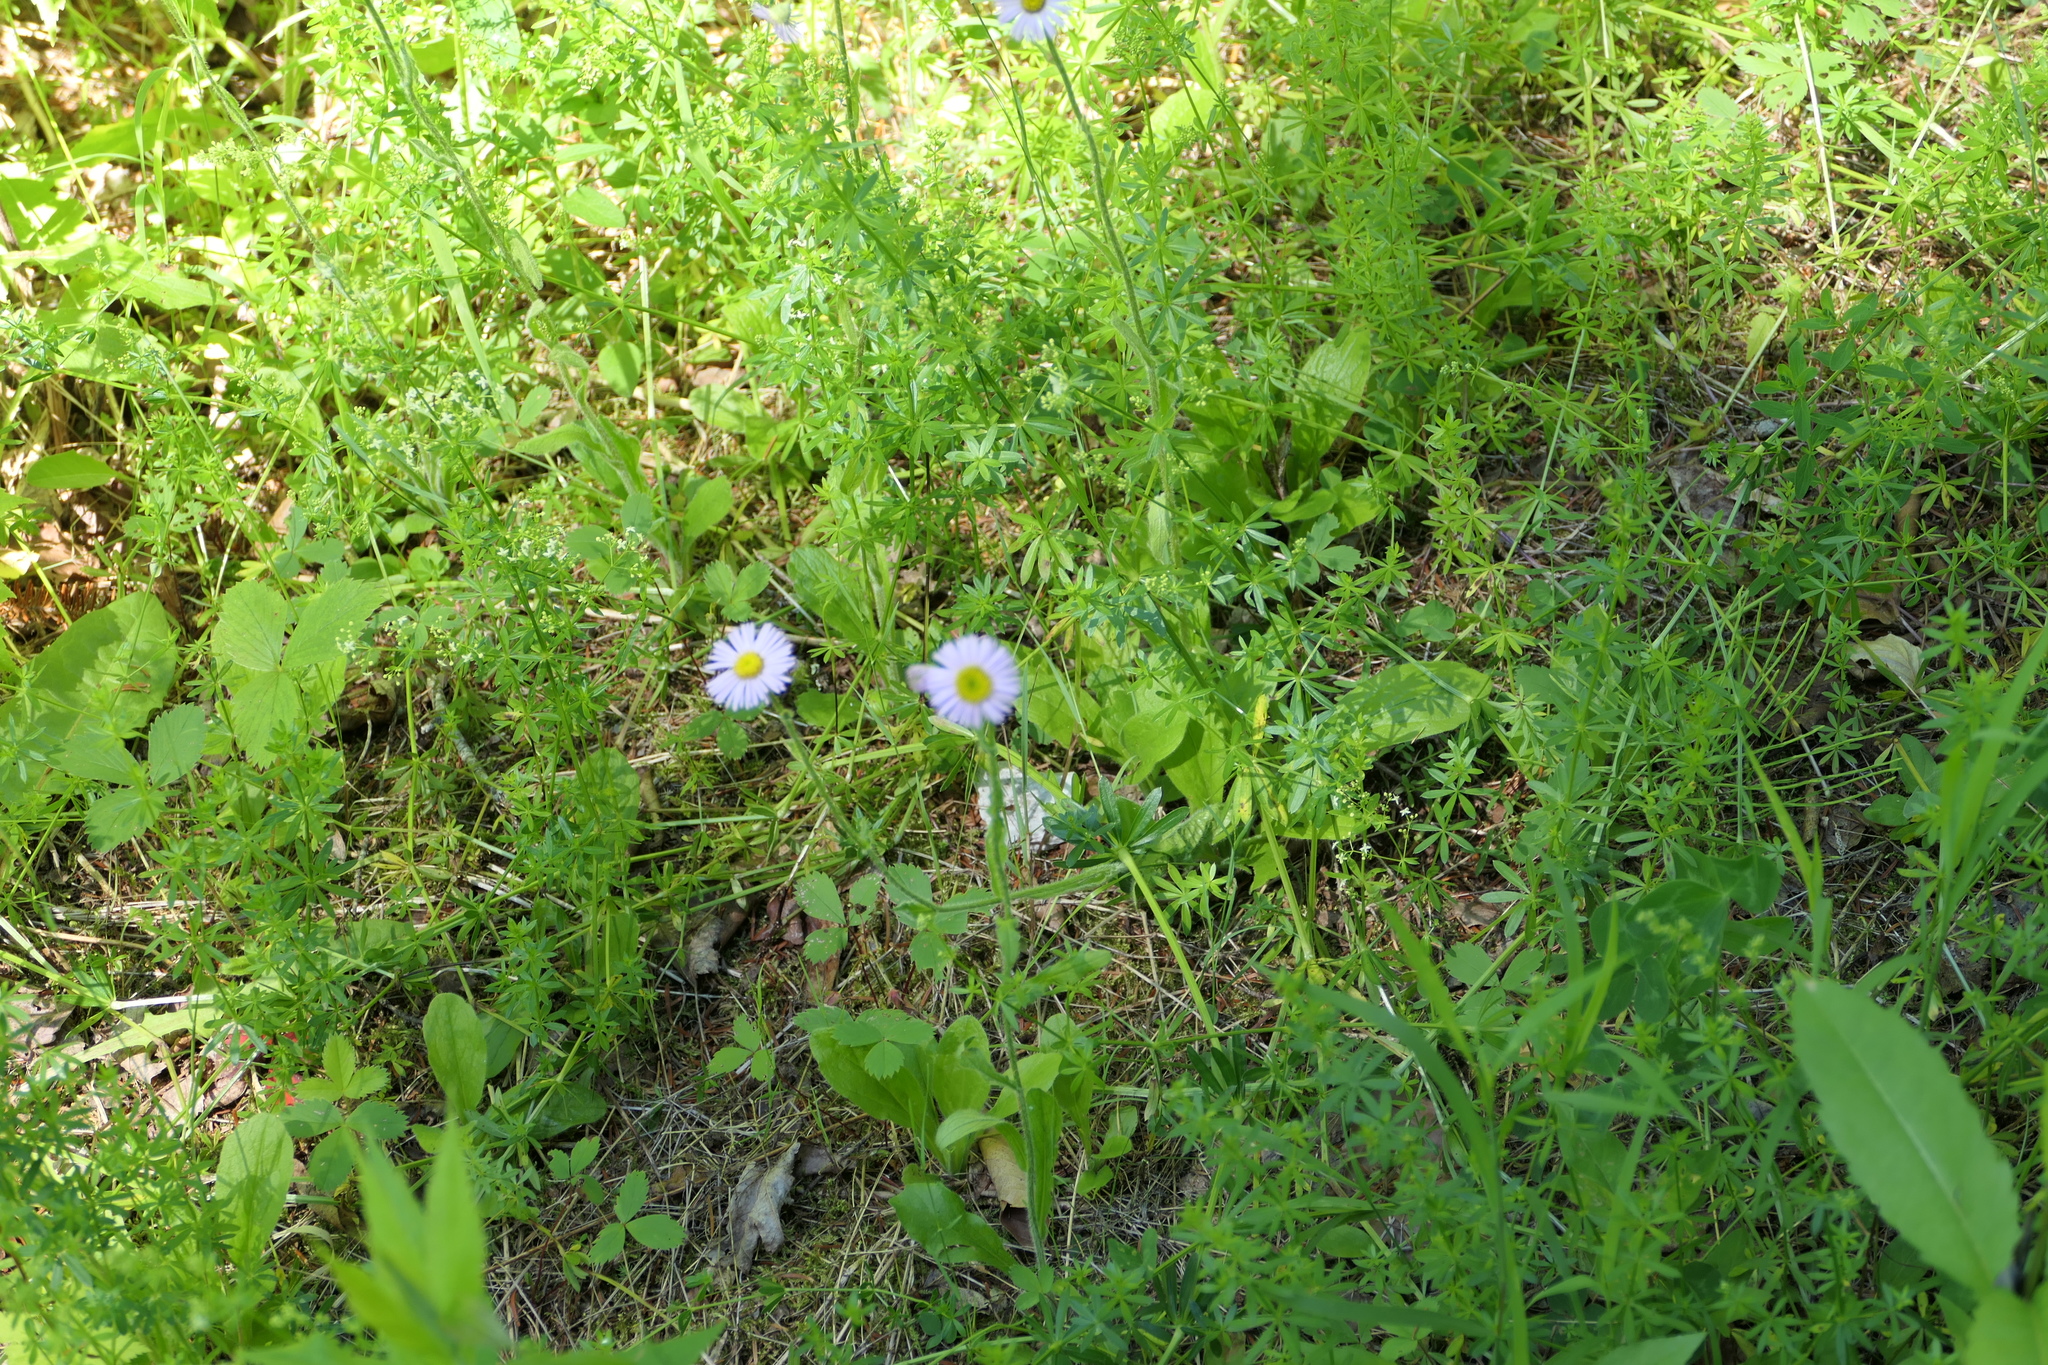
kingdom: Plantae
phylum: Tracheophyta
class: Magnoliopsida
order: Asterales
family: Asteraceae
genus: Erigeron
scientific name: Erigeron pulchellus
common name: Hairy fleabane
